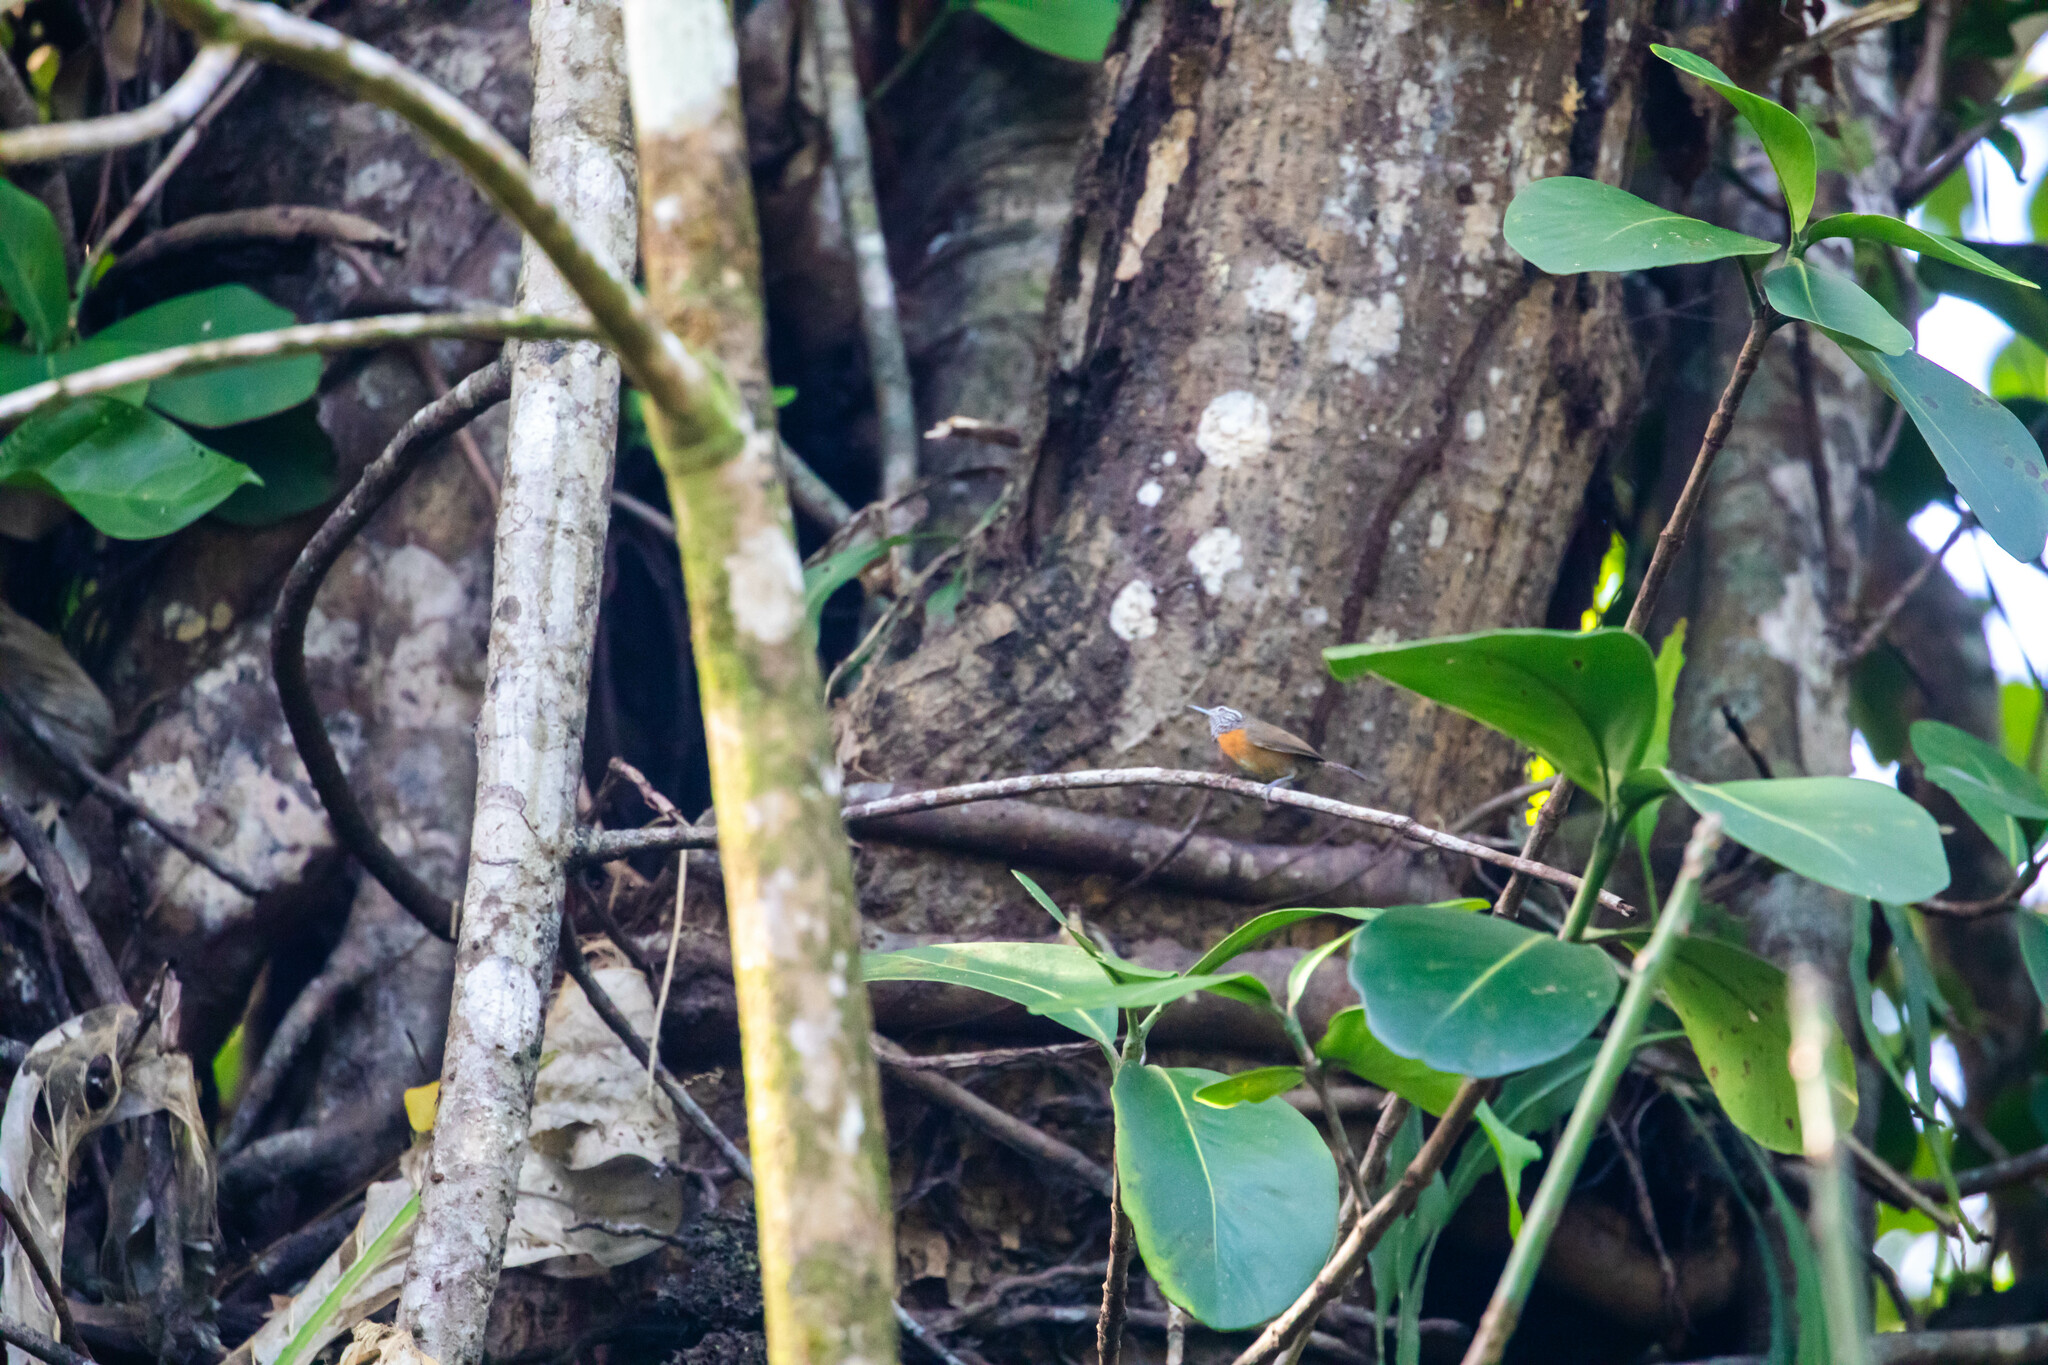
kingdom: Animalia
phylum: Chordata
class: Aves
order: Passeriformes
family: Troglodytidae
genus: Pheugopedius
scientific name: Pheugopedius rutilus
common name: Rufous-breasted wren
